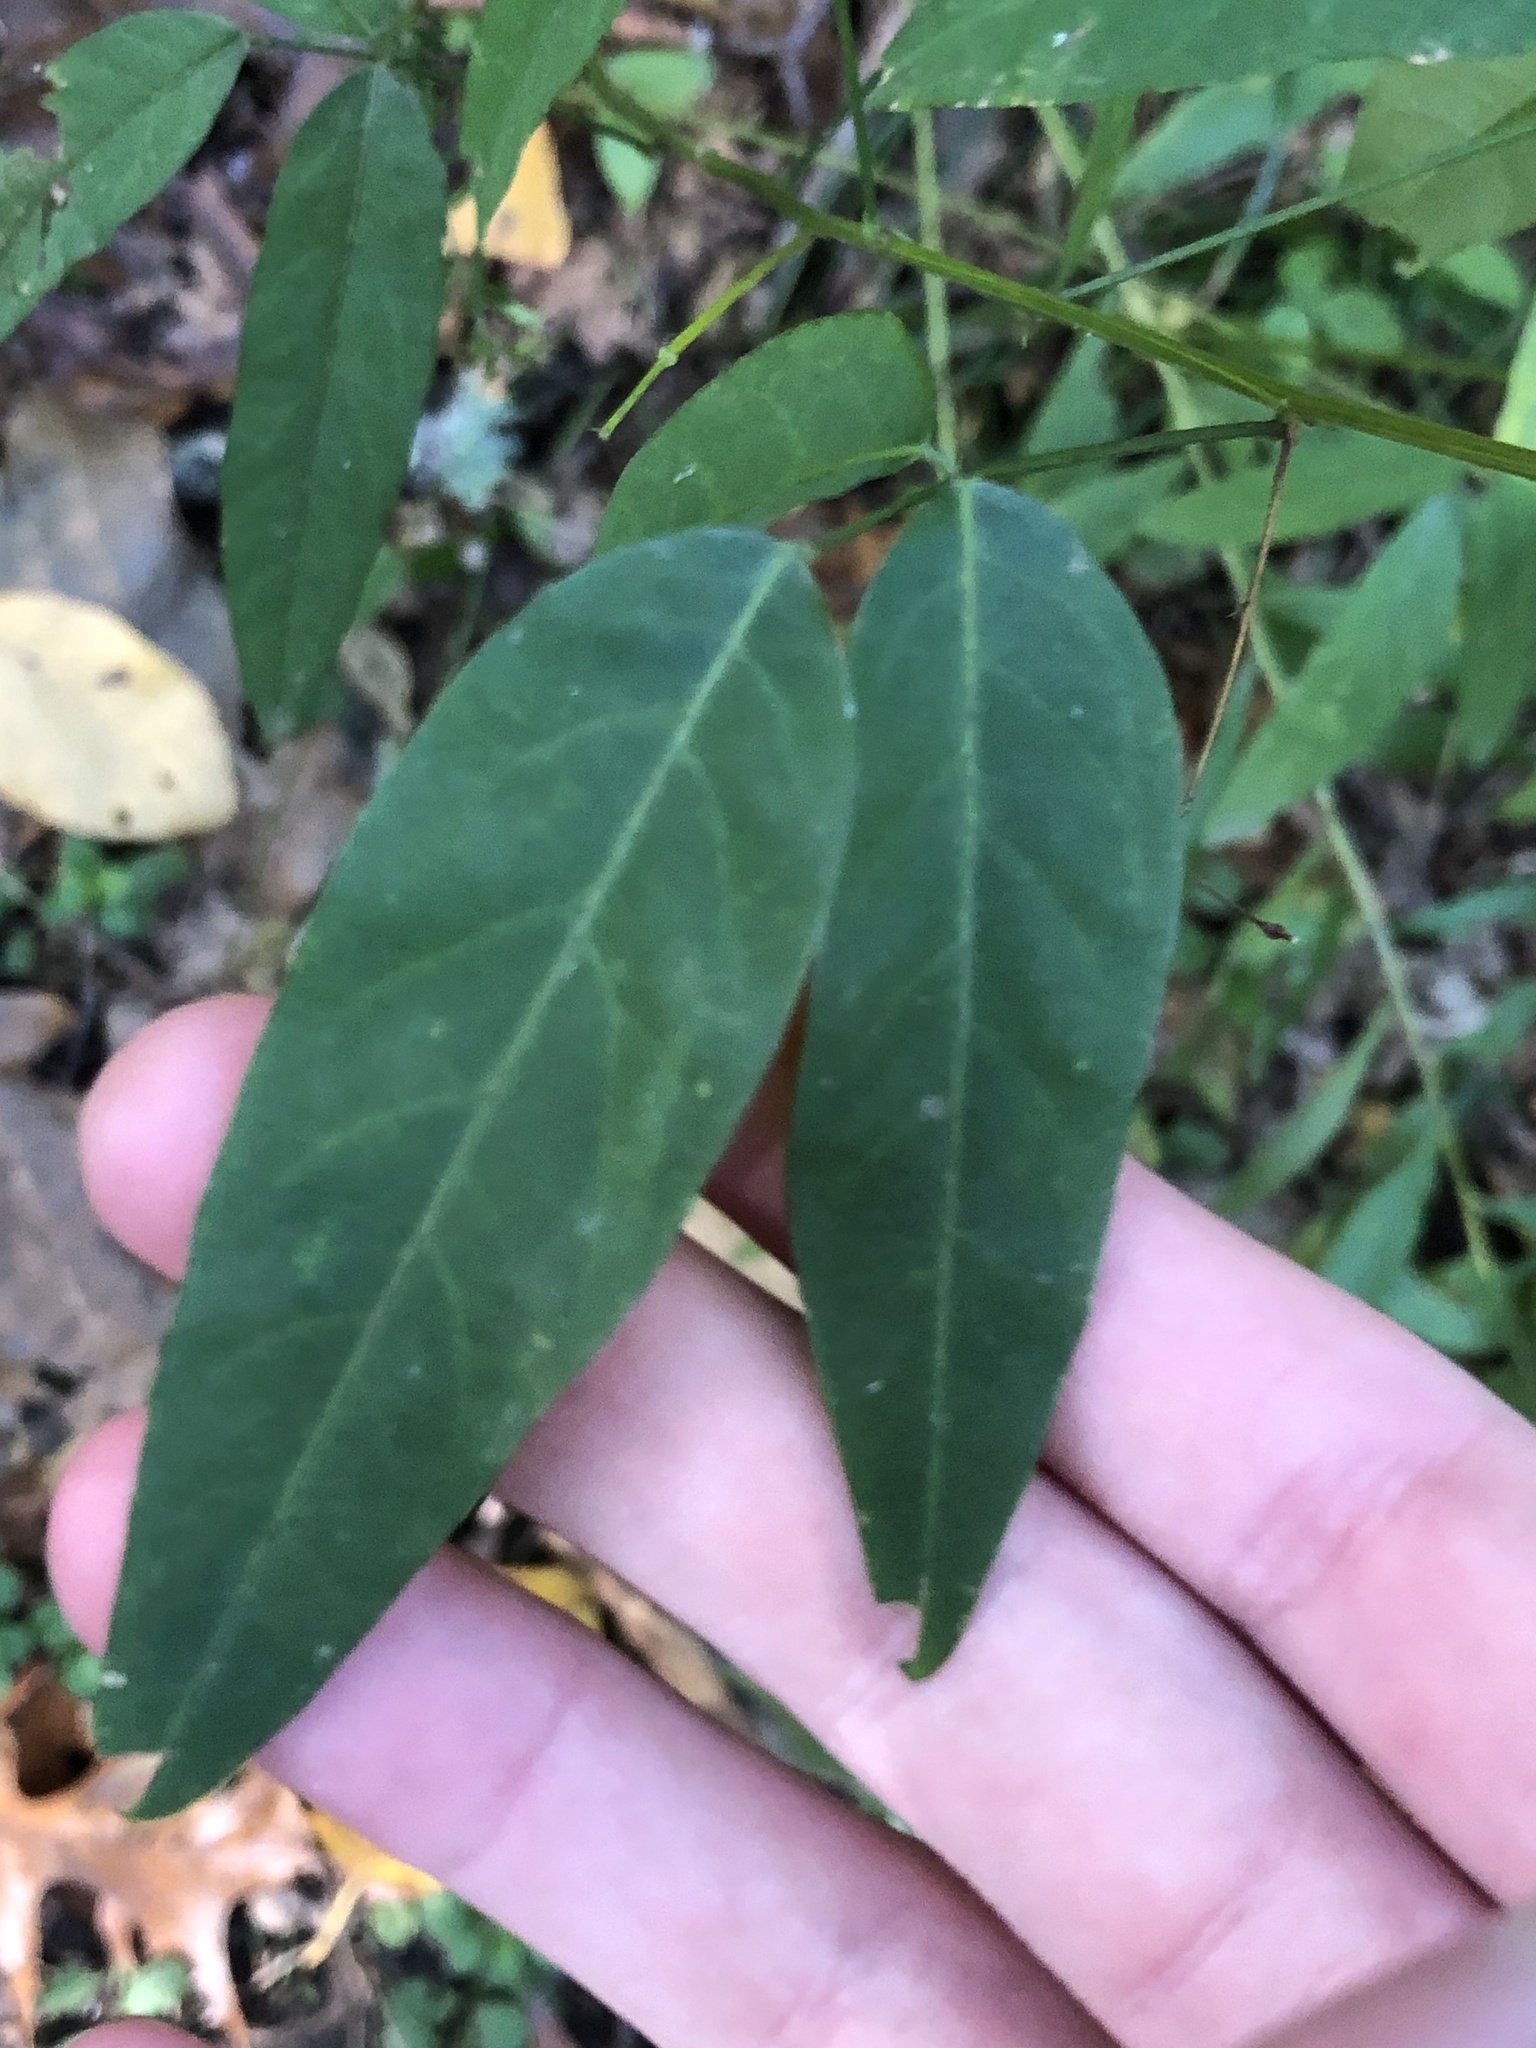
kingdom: Plantae
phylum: Tracheophyta
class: Magnoliopsida
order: Fabales
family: Fabaceae
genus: Desmodium
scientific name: Desmodium paniculatum
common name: Panicled tick-clover
